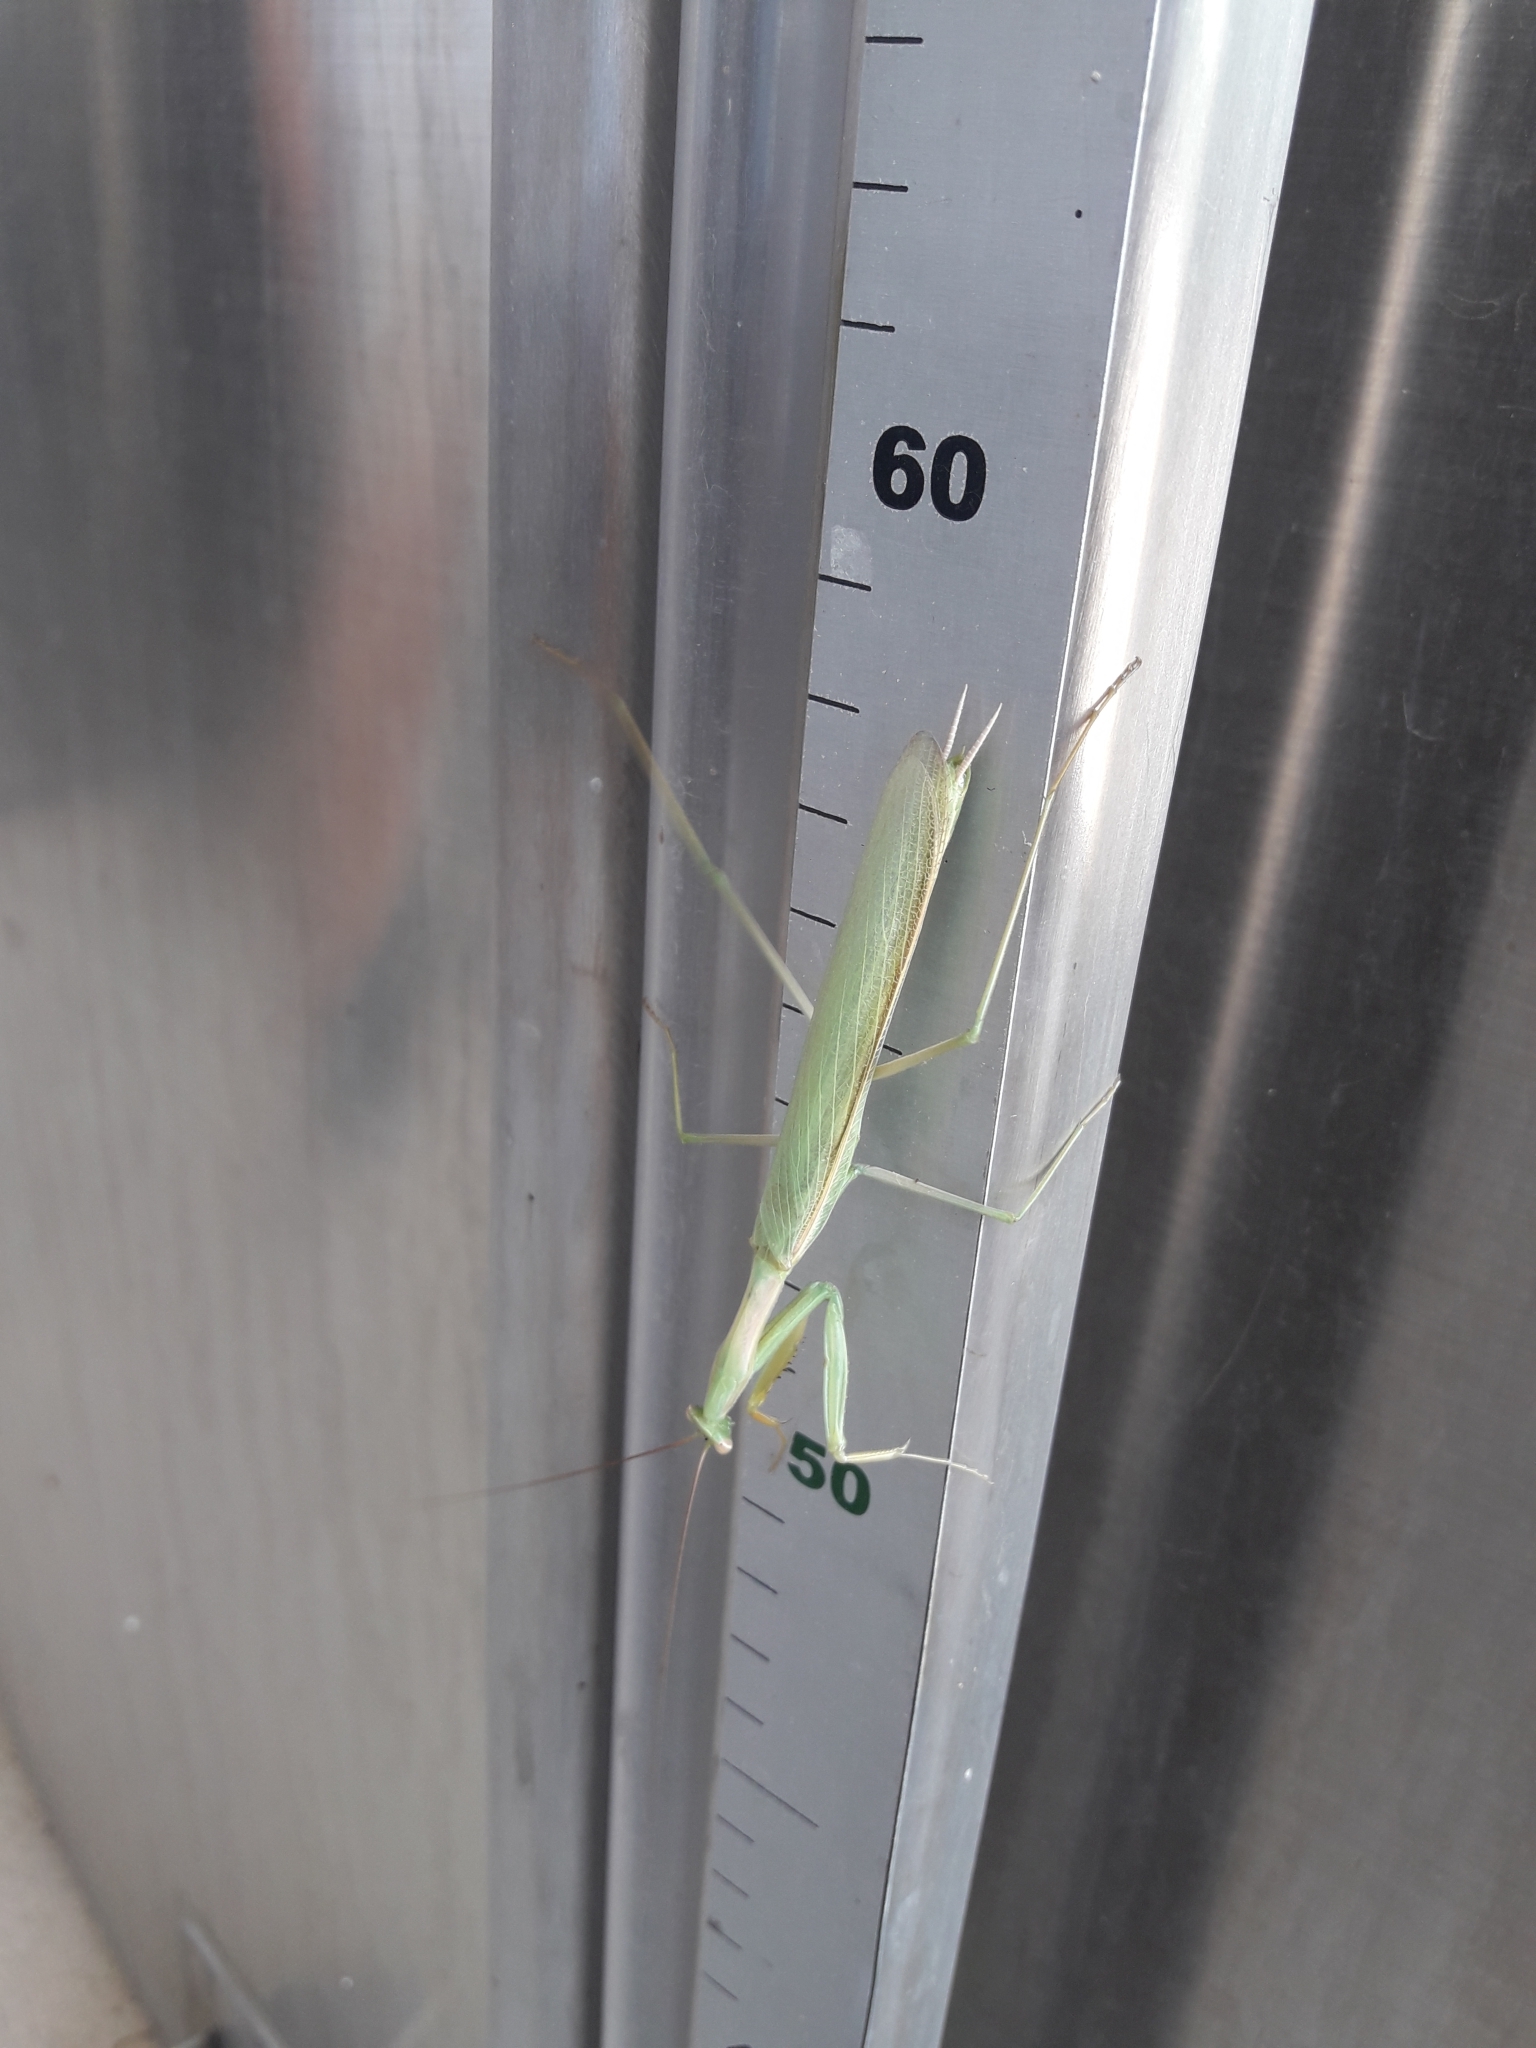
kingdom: Animalia
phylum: Arthropoda
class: Insecta
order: Mantodea
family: Coptopterygidae
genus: Coptopteryx
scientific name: Coptopteryx argentina
